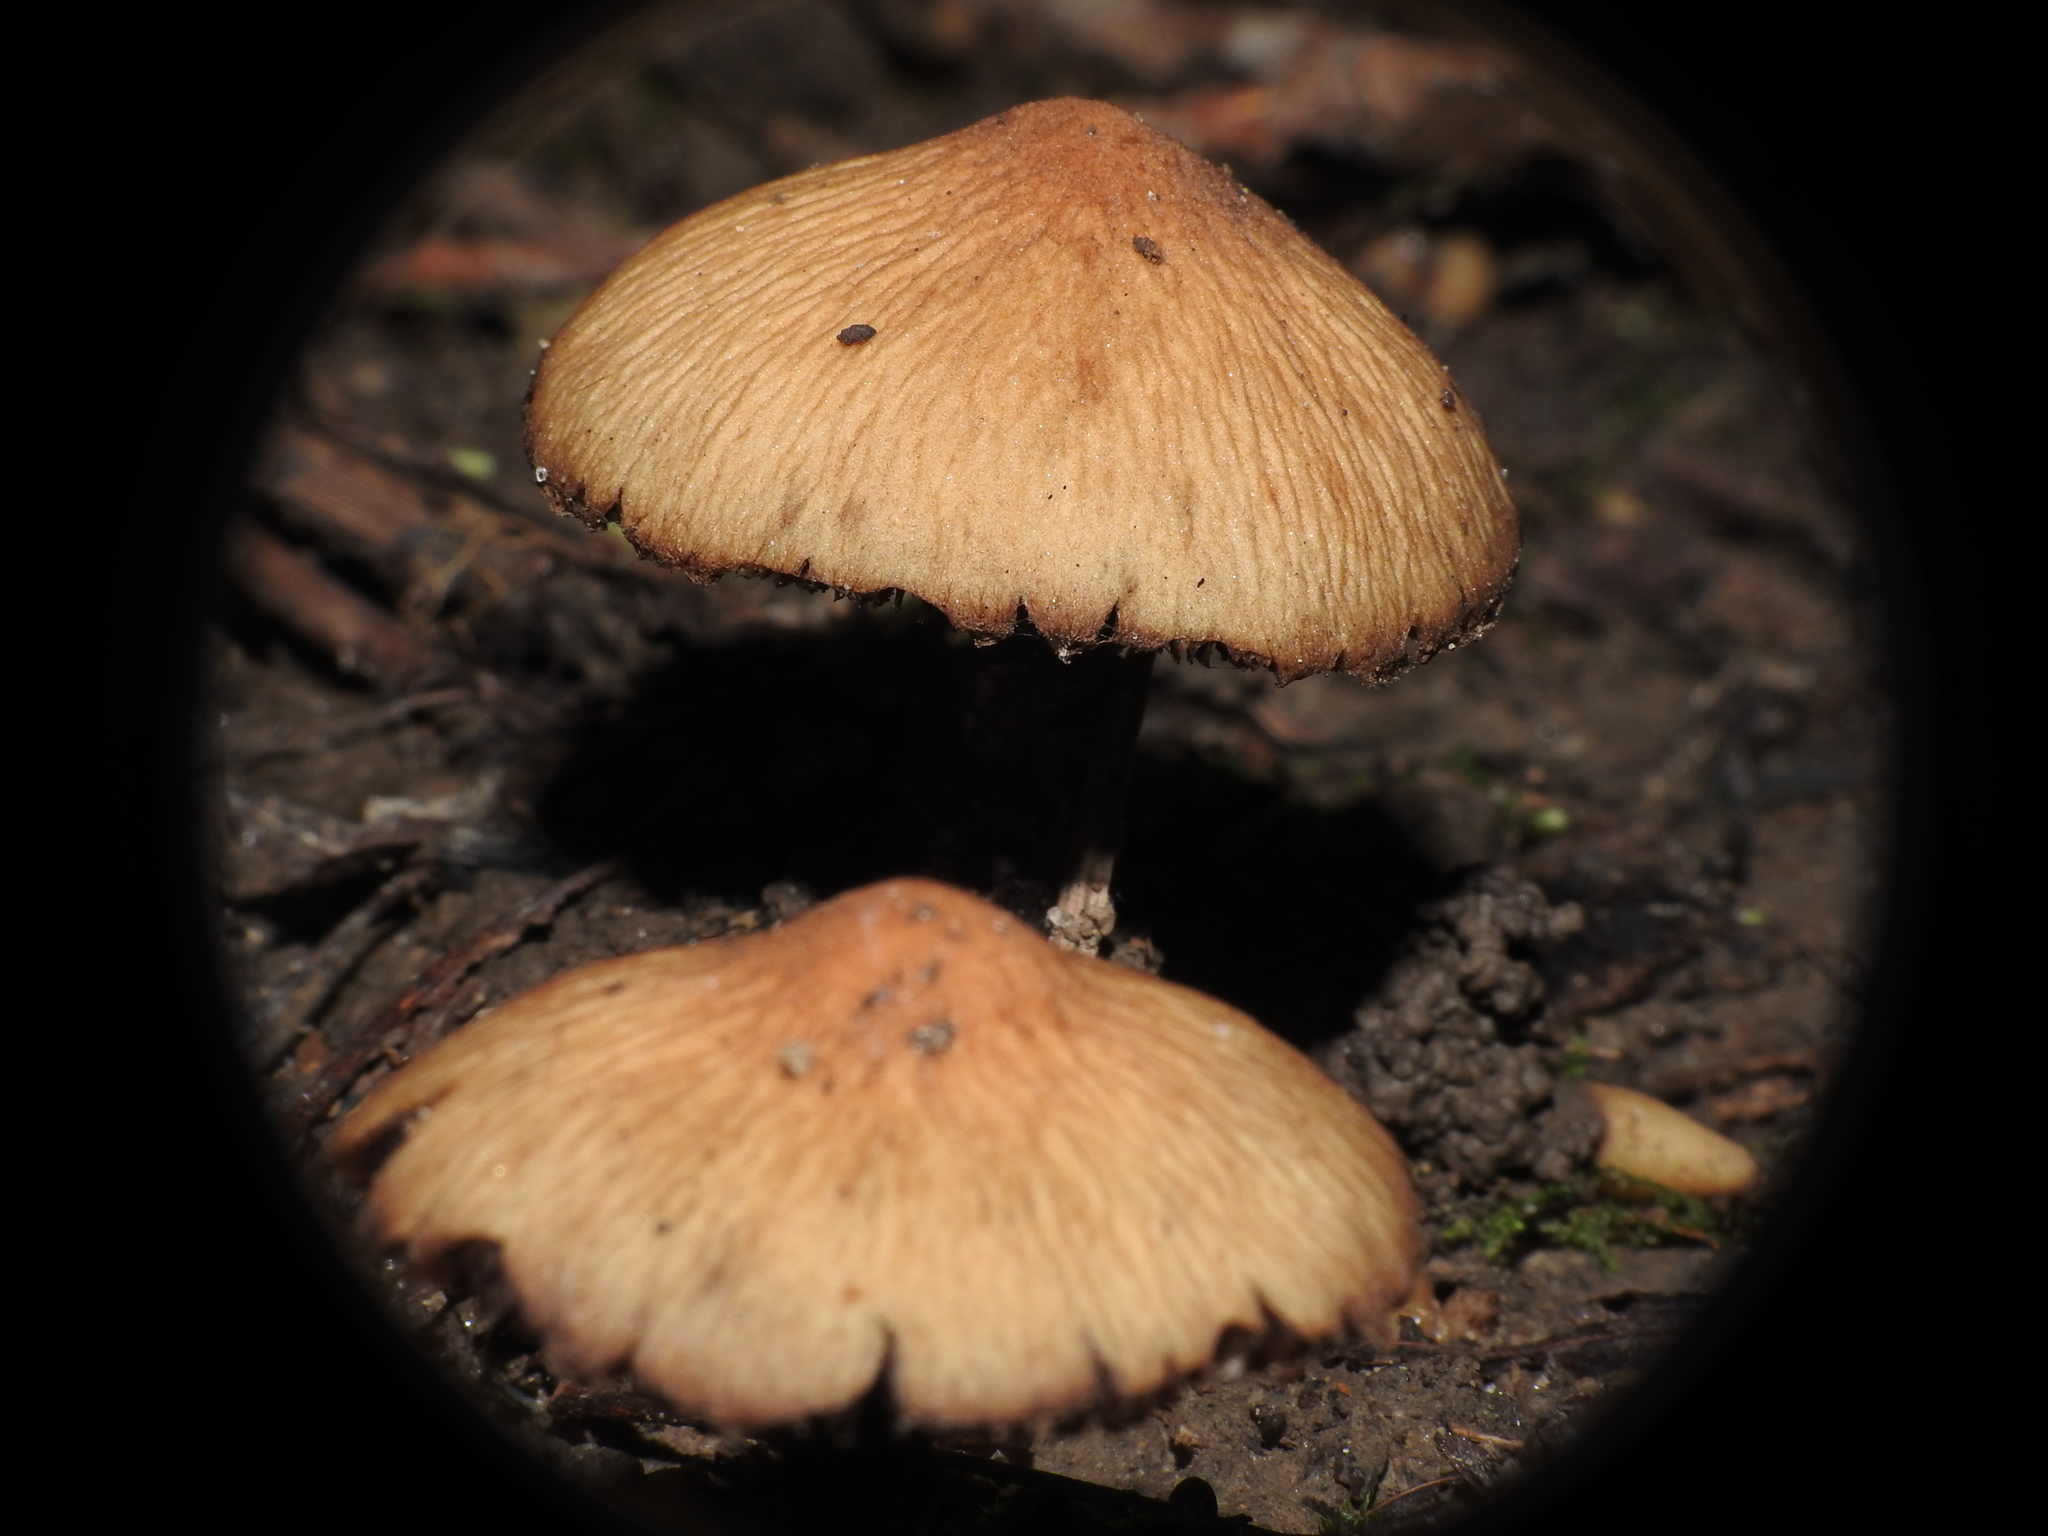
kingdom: Fungi
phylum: Basidiomycota
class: Agaricomycetes
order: Agaricales
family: Psathyrellaceae
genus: Typhrasa
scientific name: Typhrasa gossypina
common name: Wrinkled psathyrella
